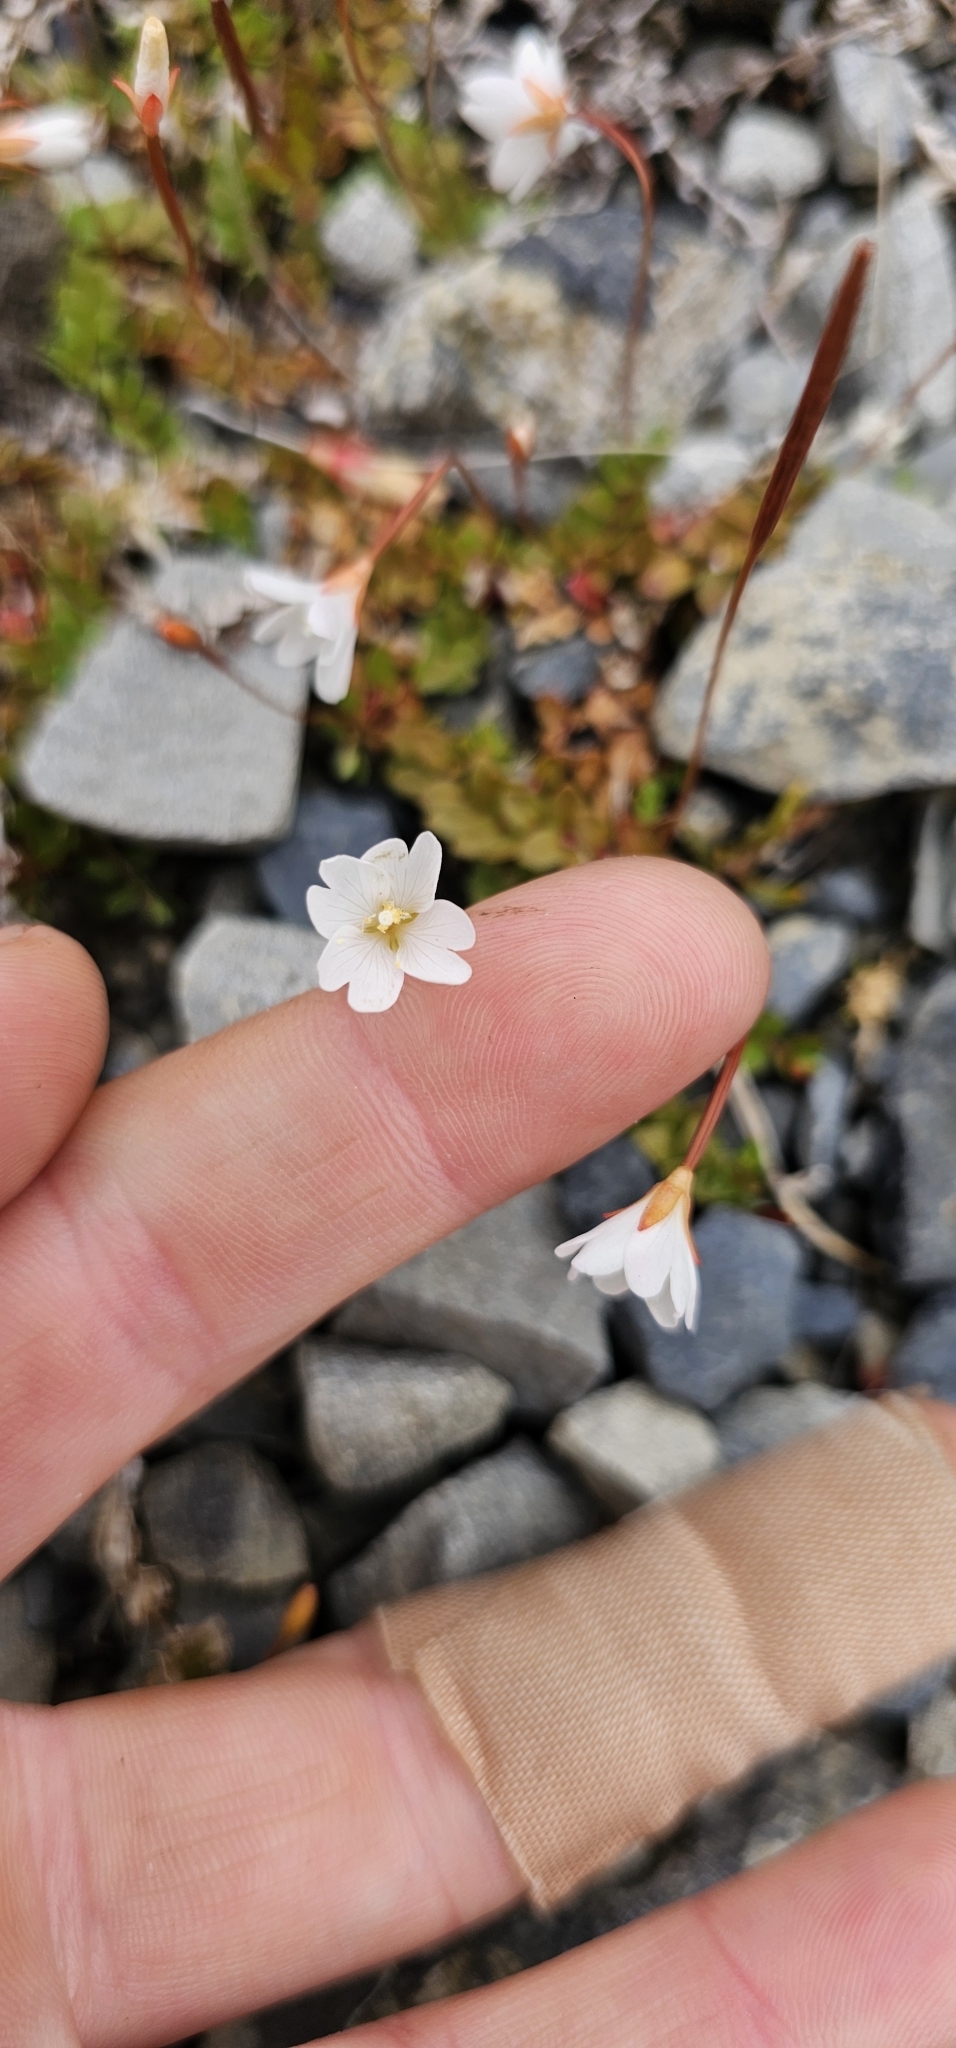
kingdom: Plantae
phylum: Tracheophyta
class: Magnoliopsida
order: Myrtales
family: Onagraceae
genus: Epilobium
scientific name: Epilobium brunnescens
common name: New zealand willowherb
